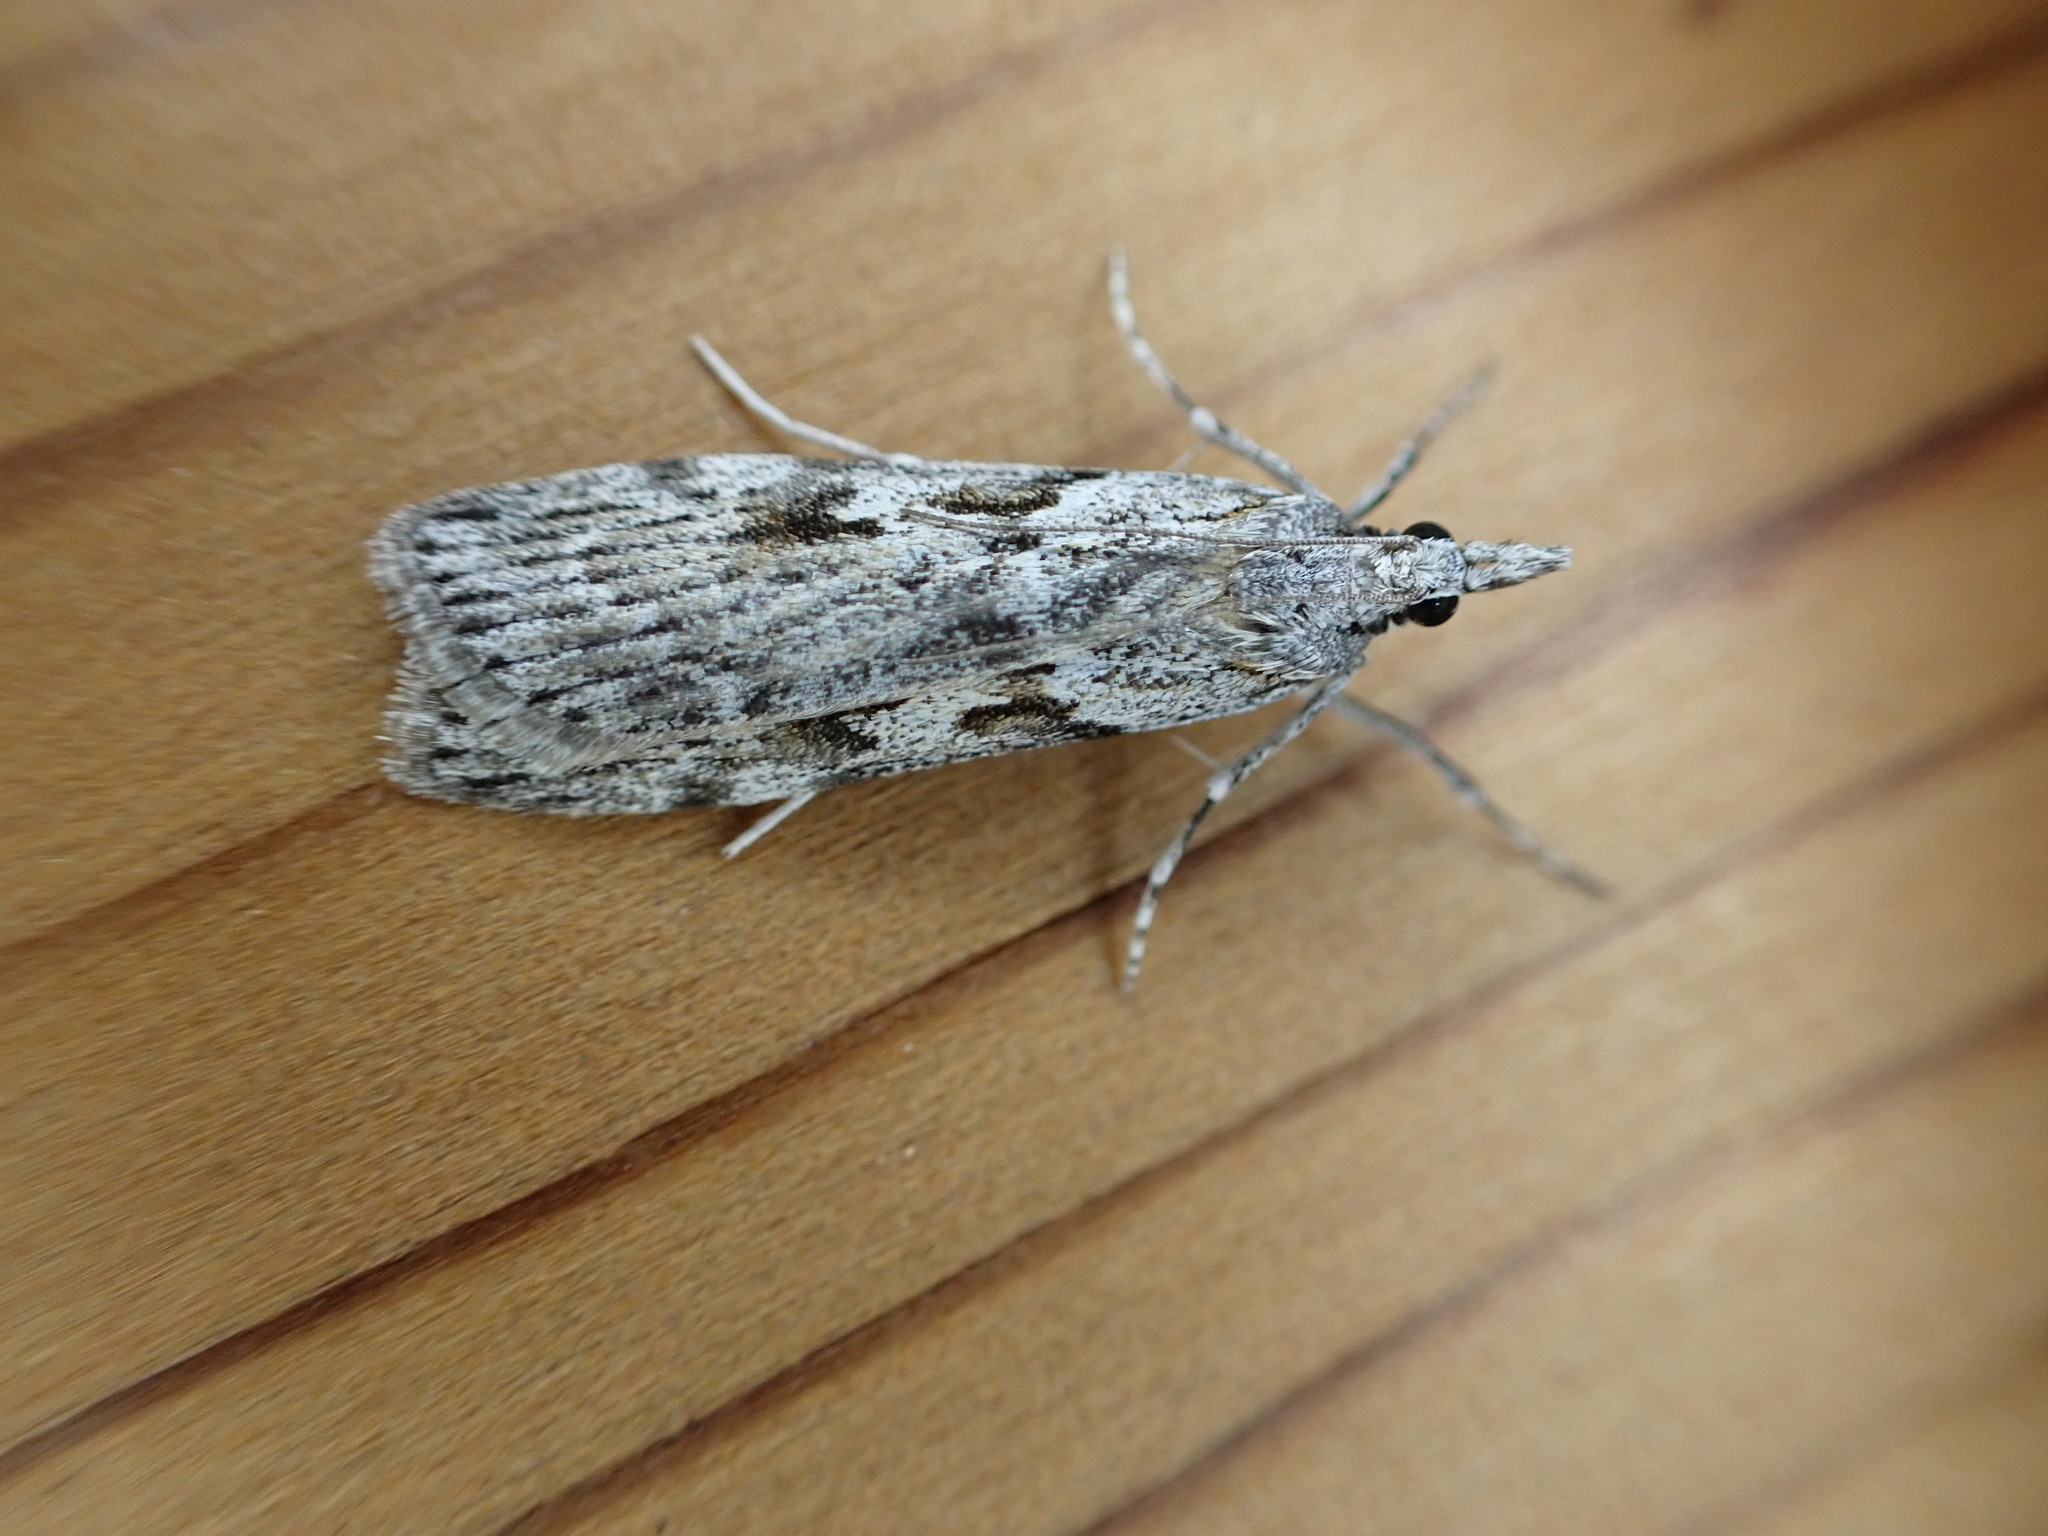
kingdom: Animalia
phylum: Arthropoda
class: Insecta
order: Lepidoptera
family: Crambidae
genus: Scoparia
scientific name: Scoparia halopis
